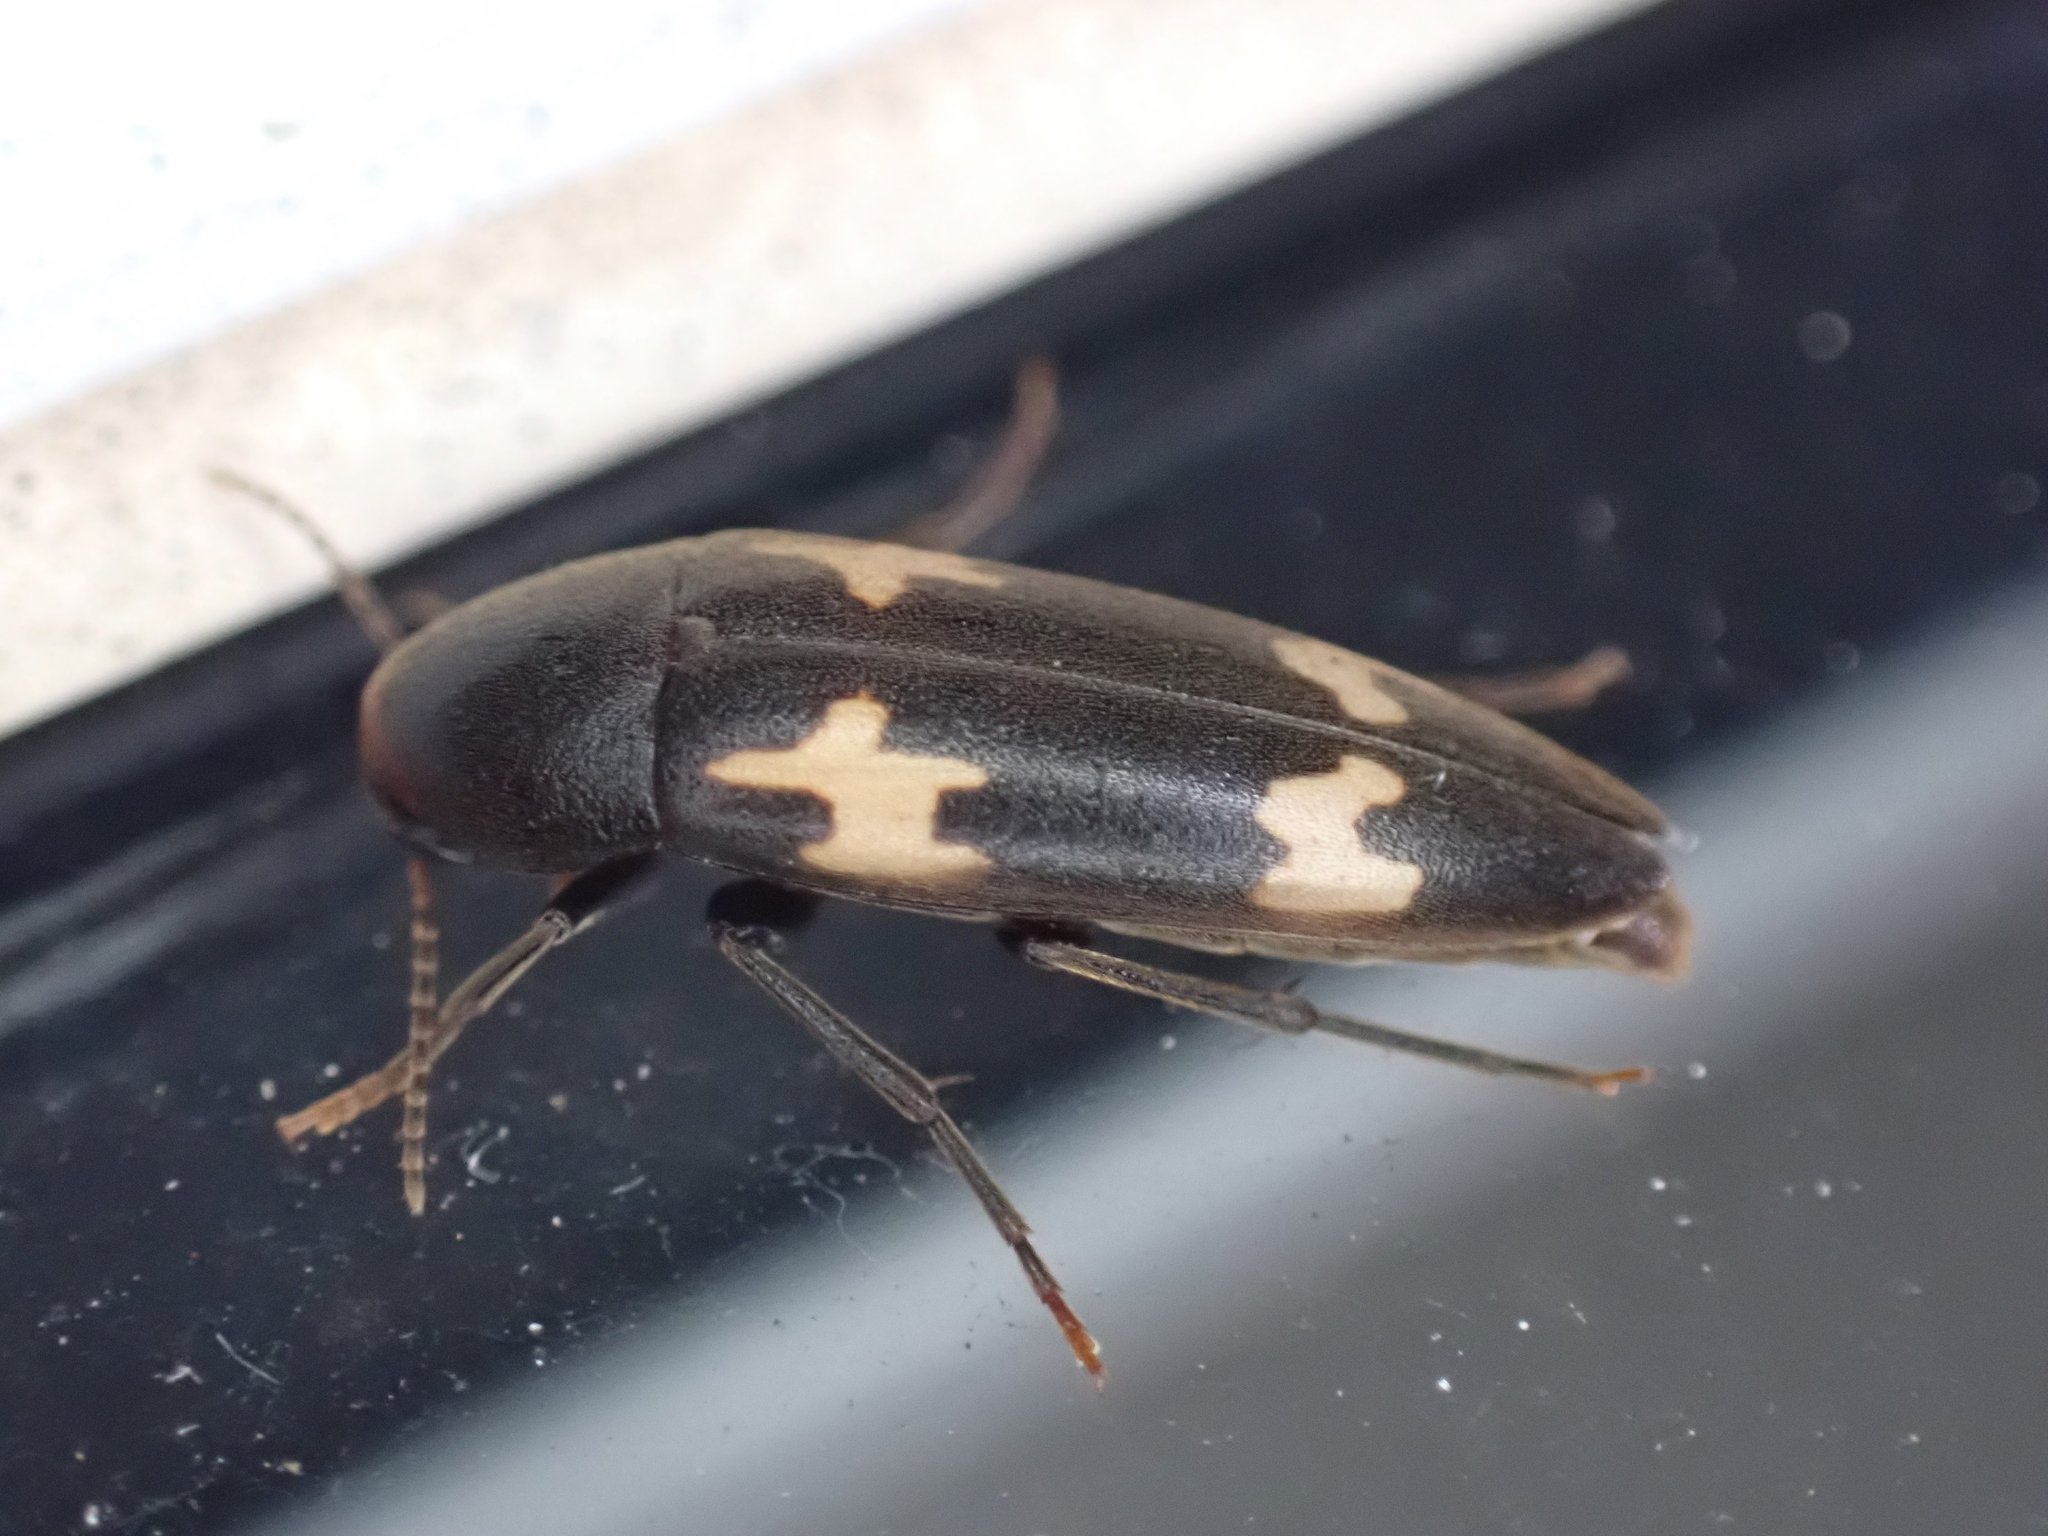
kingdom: Animalia
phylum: Arthropoda
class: Insecta
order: Coleoptera
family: Melandryidae
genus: Dircaea
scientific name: Dircaea liturata
